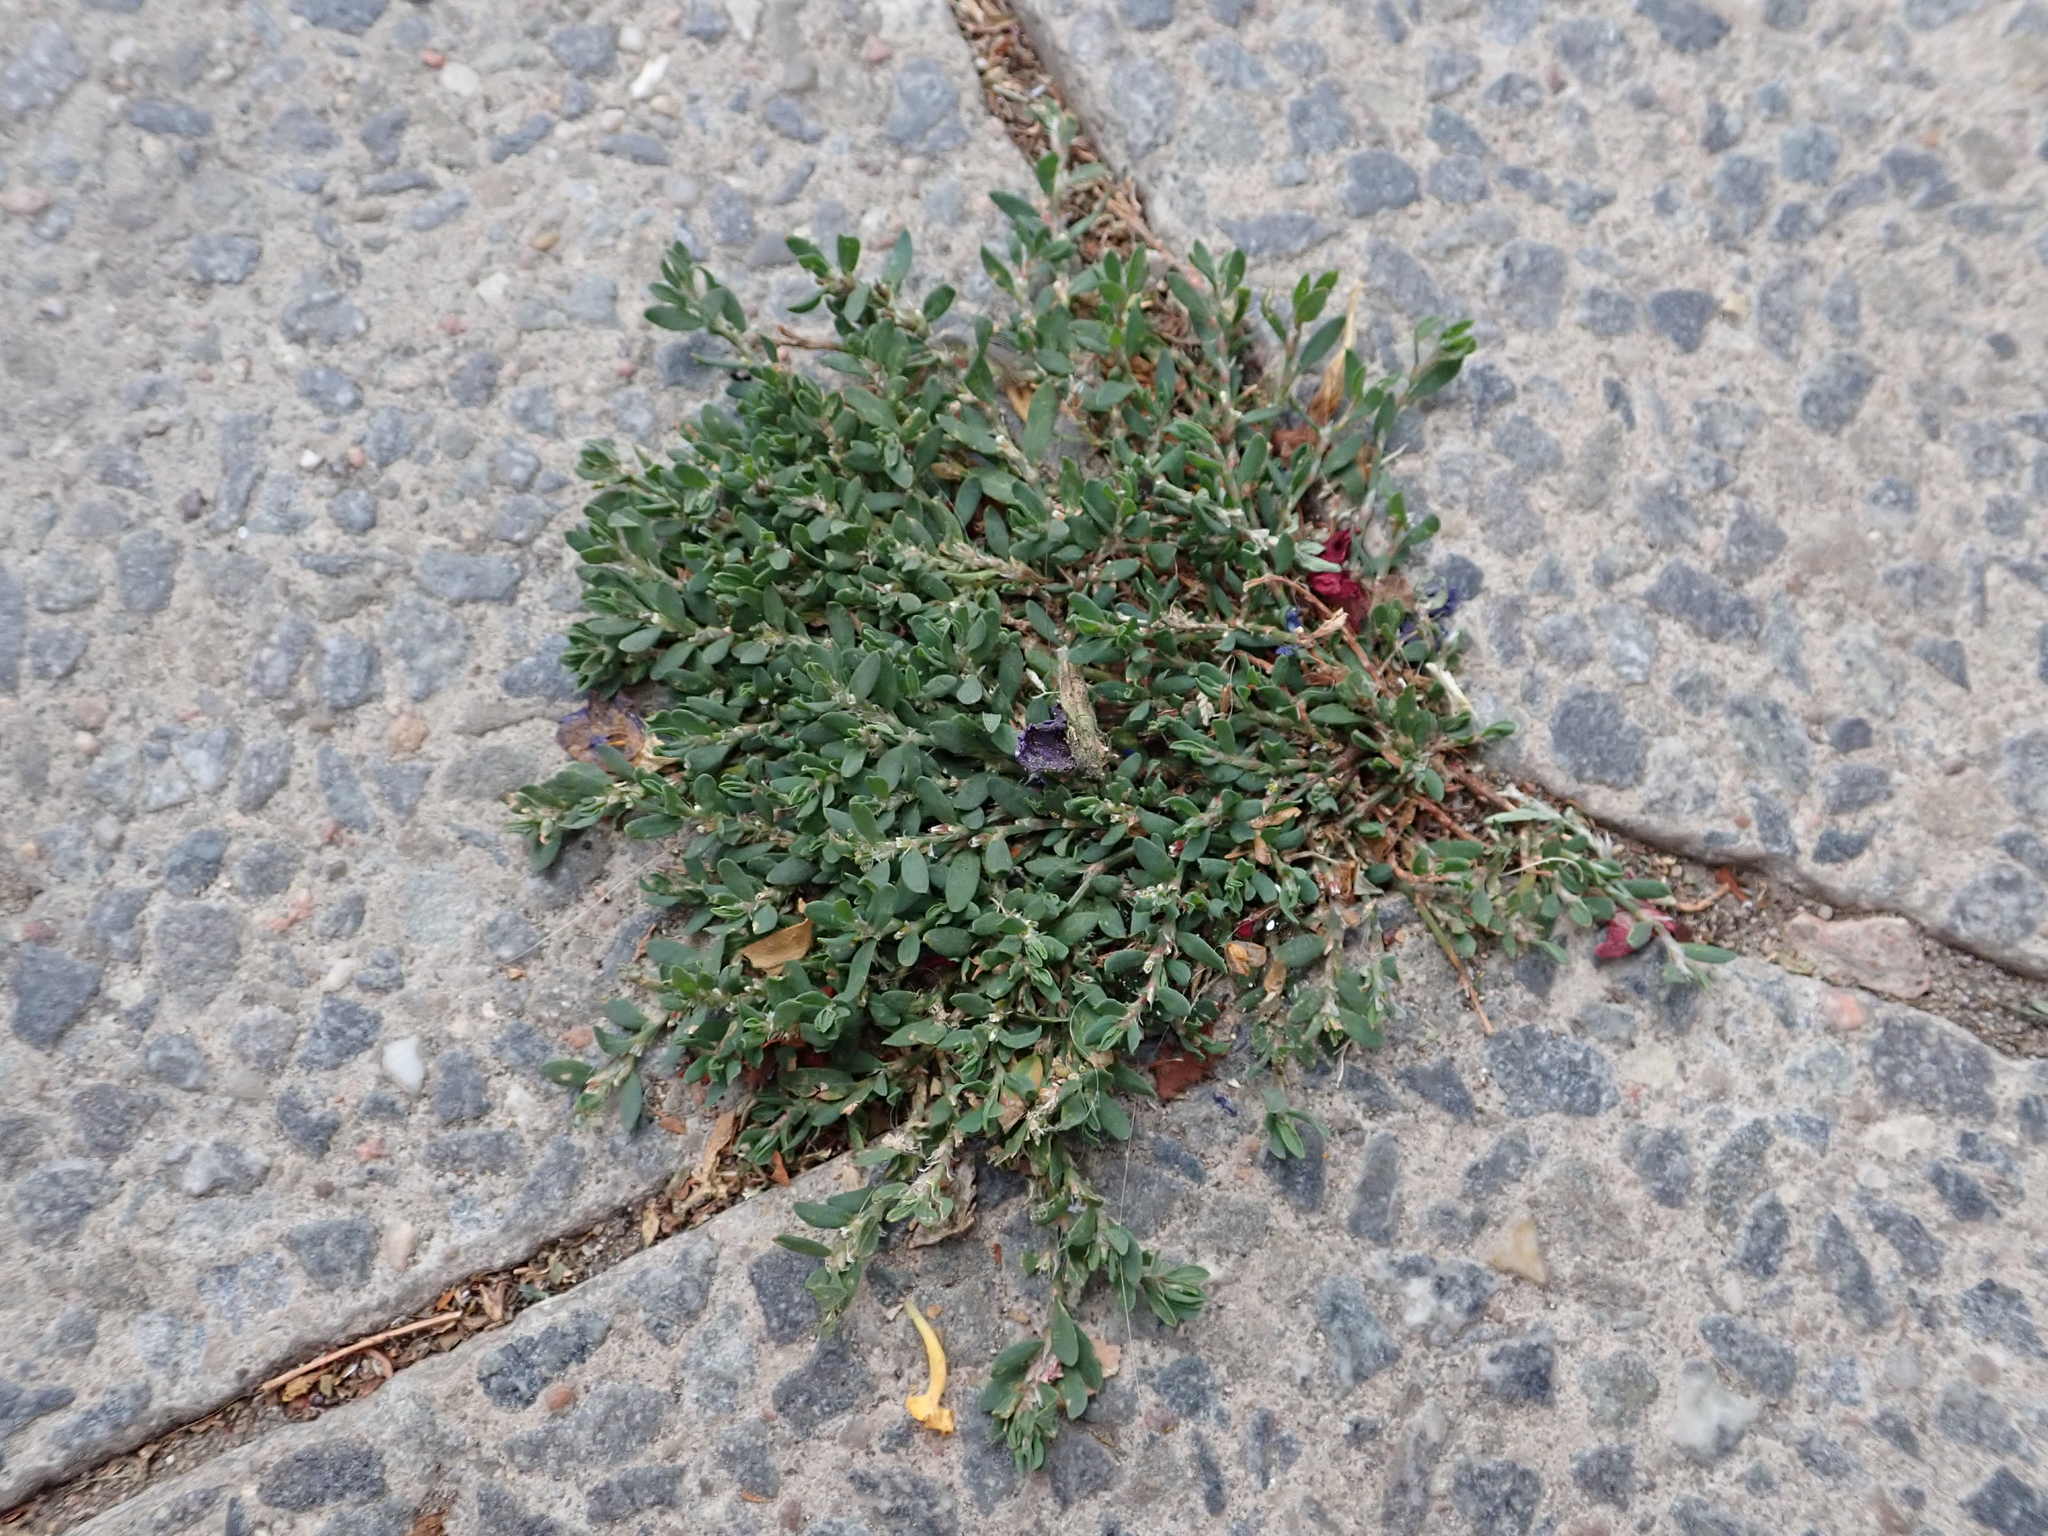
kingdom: Plantae
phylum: Tracheophyta
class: Magnoliopsida
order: Caryophyllales
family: Polygonaceae
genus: Polygonum
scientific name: Polygonum aviculare
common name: Prostrate knotweed
